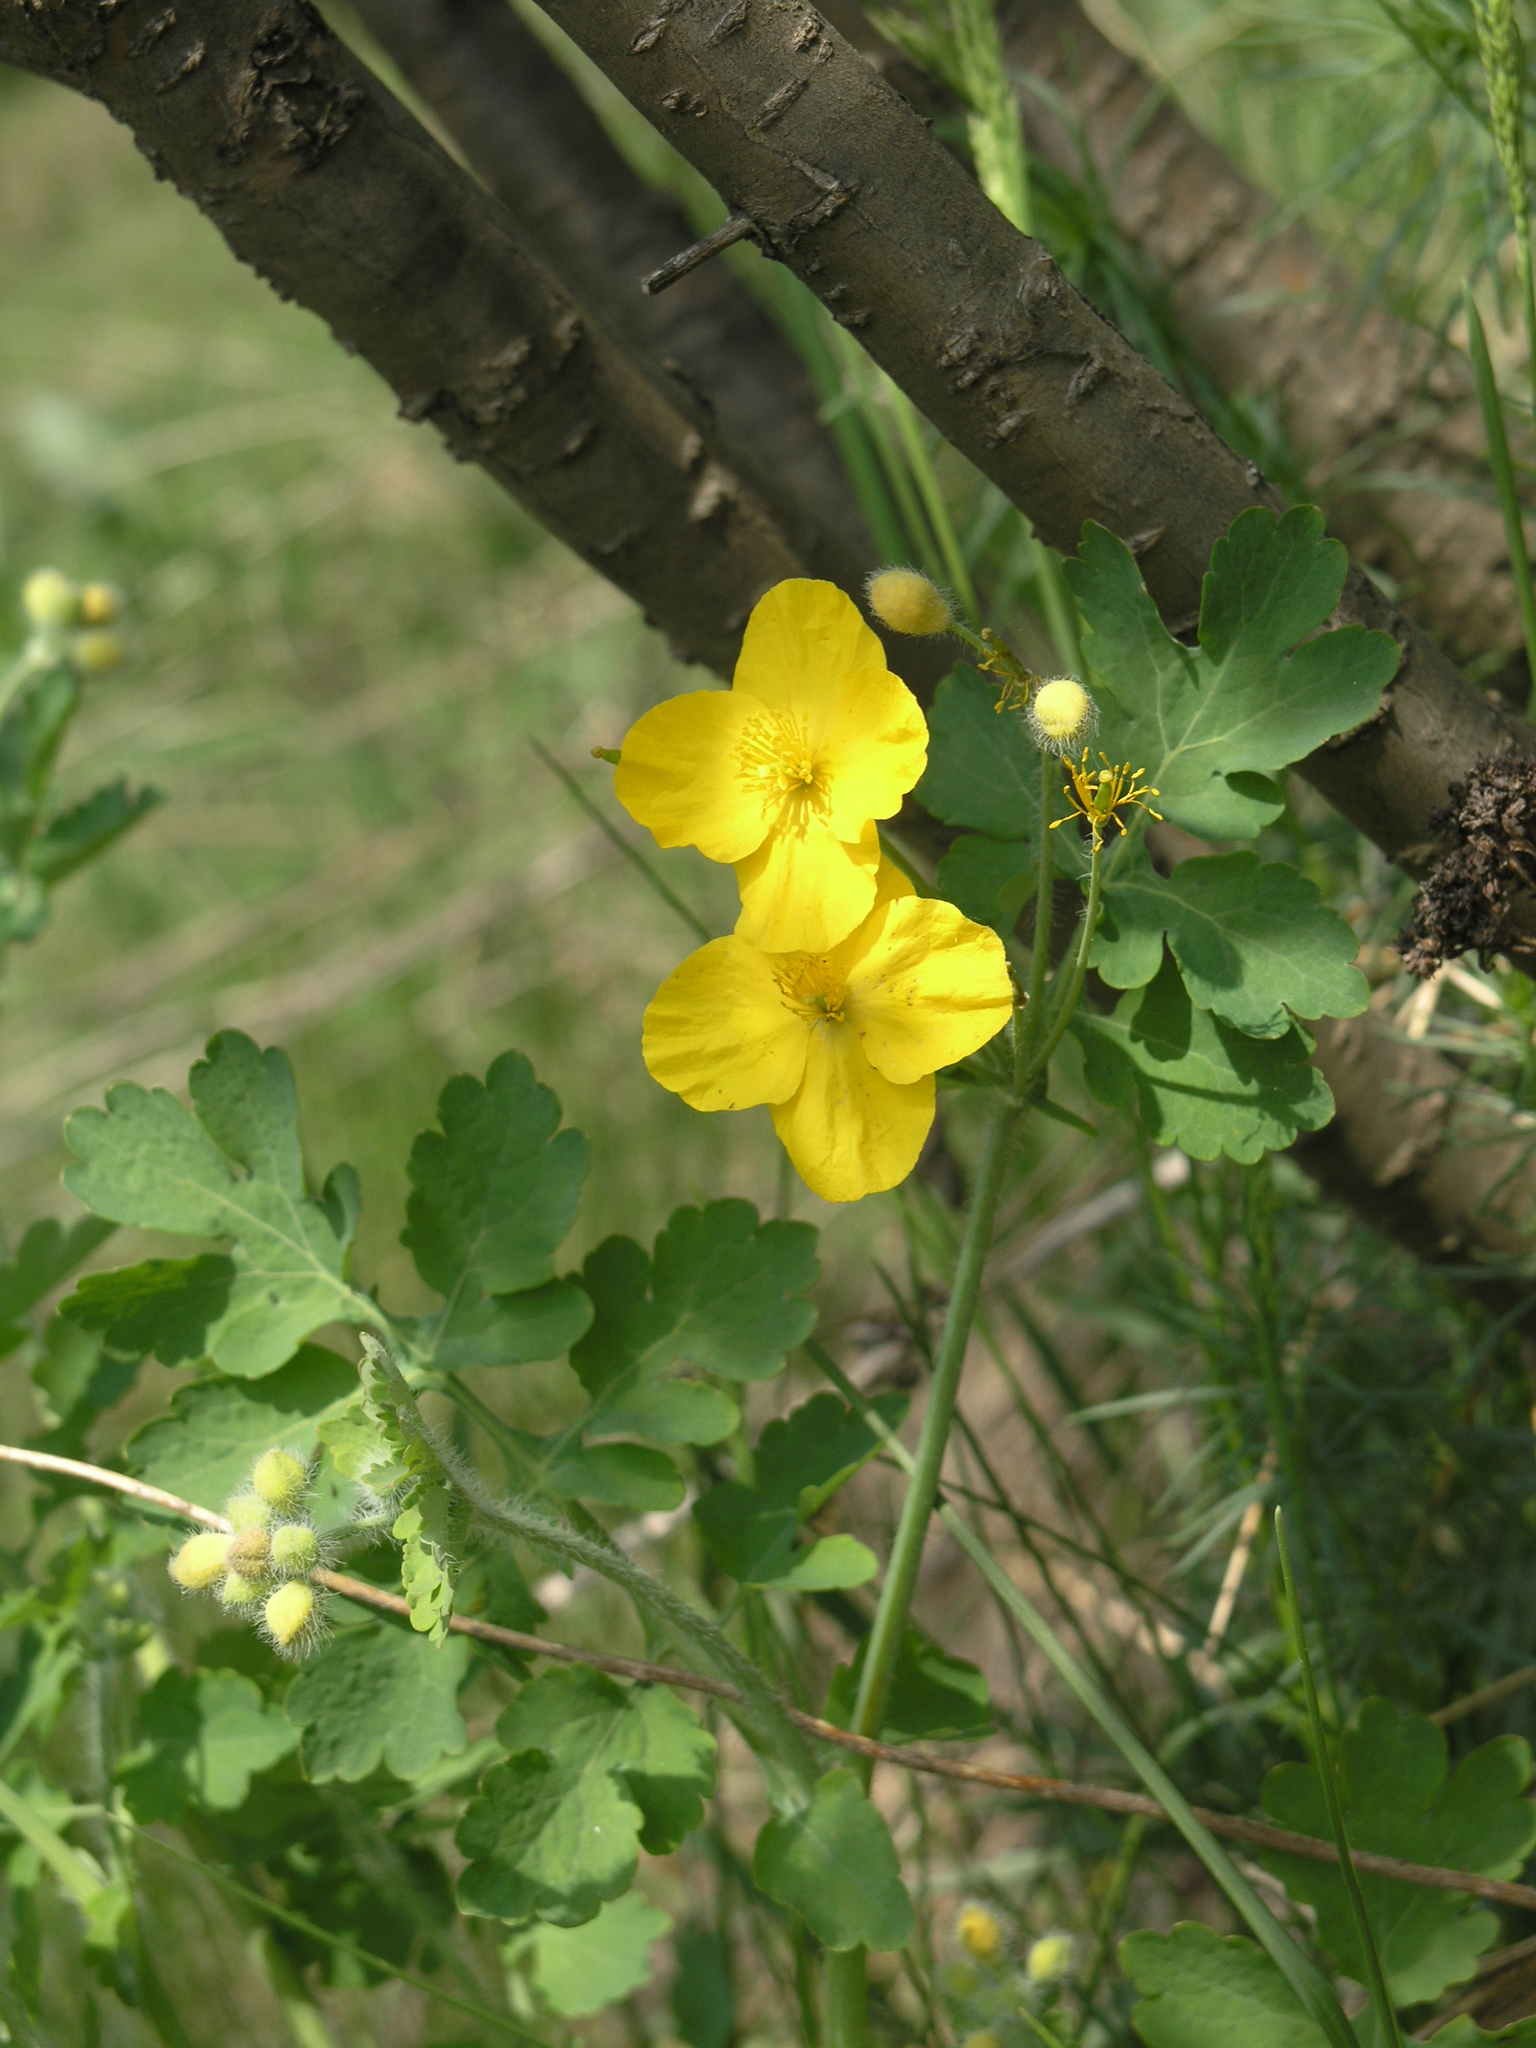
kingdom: Plantae
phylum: Tracheophyta
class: Magnoliopsida
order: Ranunculales
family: Papaveraceae
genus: Chelidonium
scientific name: Chelidonium majus
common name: Greater celandine
